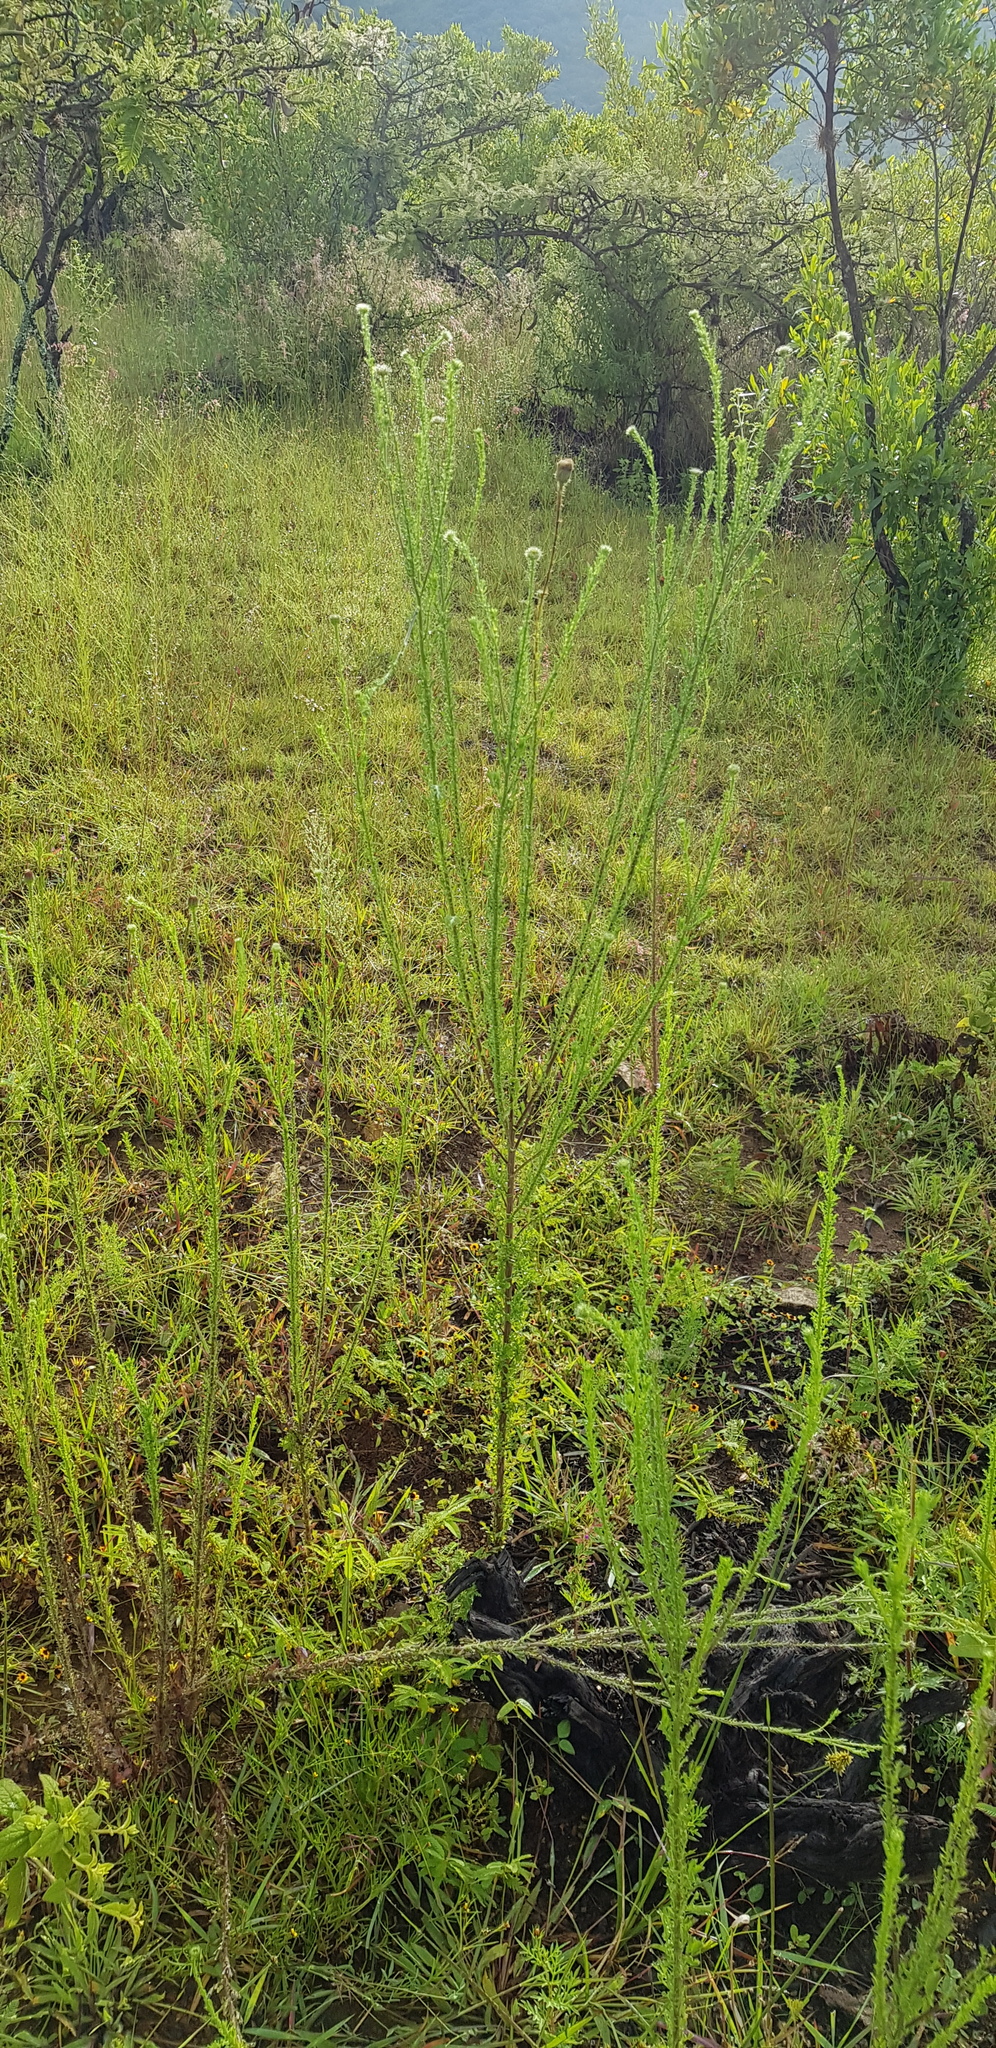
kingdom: Plantae
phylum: Tracheophyta
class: Magnoliopsida
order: Asterales
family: Asteraceae
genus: Adenophyllum
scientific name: Adenophyllum porophyllum
